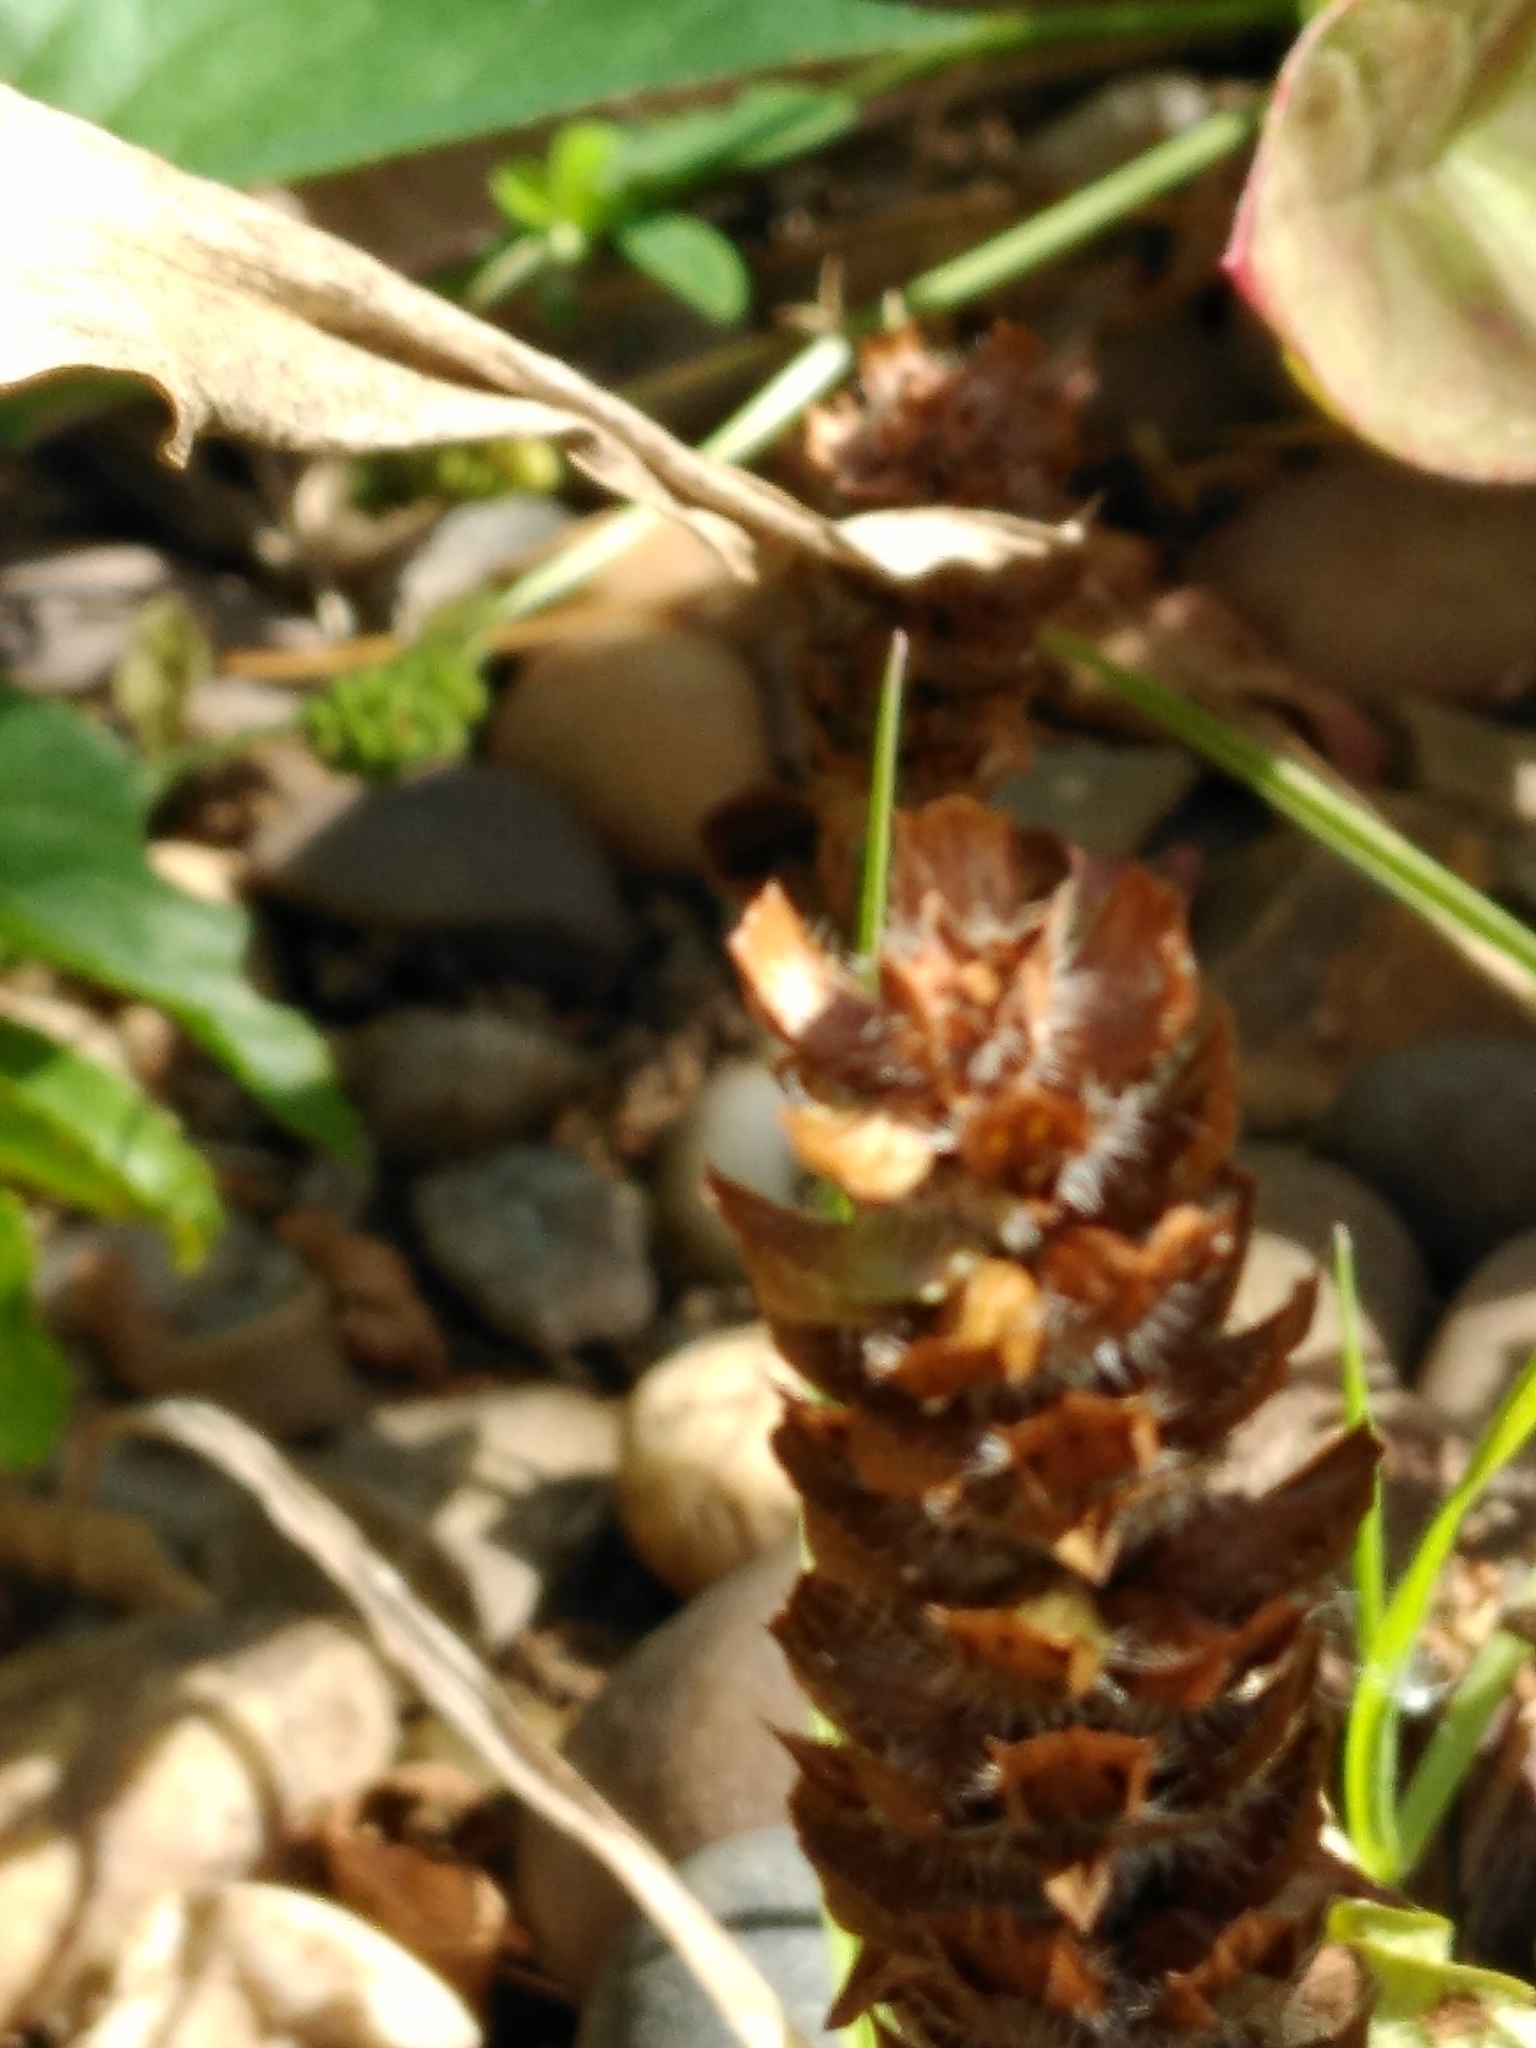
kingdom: Plantae
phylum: Tracheophyta
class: Magnoliopsida
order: Lamiales
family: Lamiaceae
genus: Prunella
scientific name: Prunella vulgaris
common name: Heal-all
